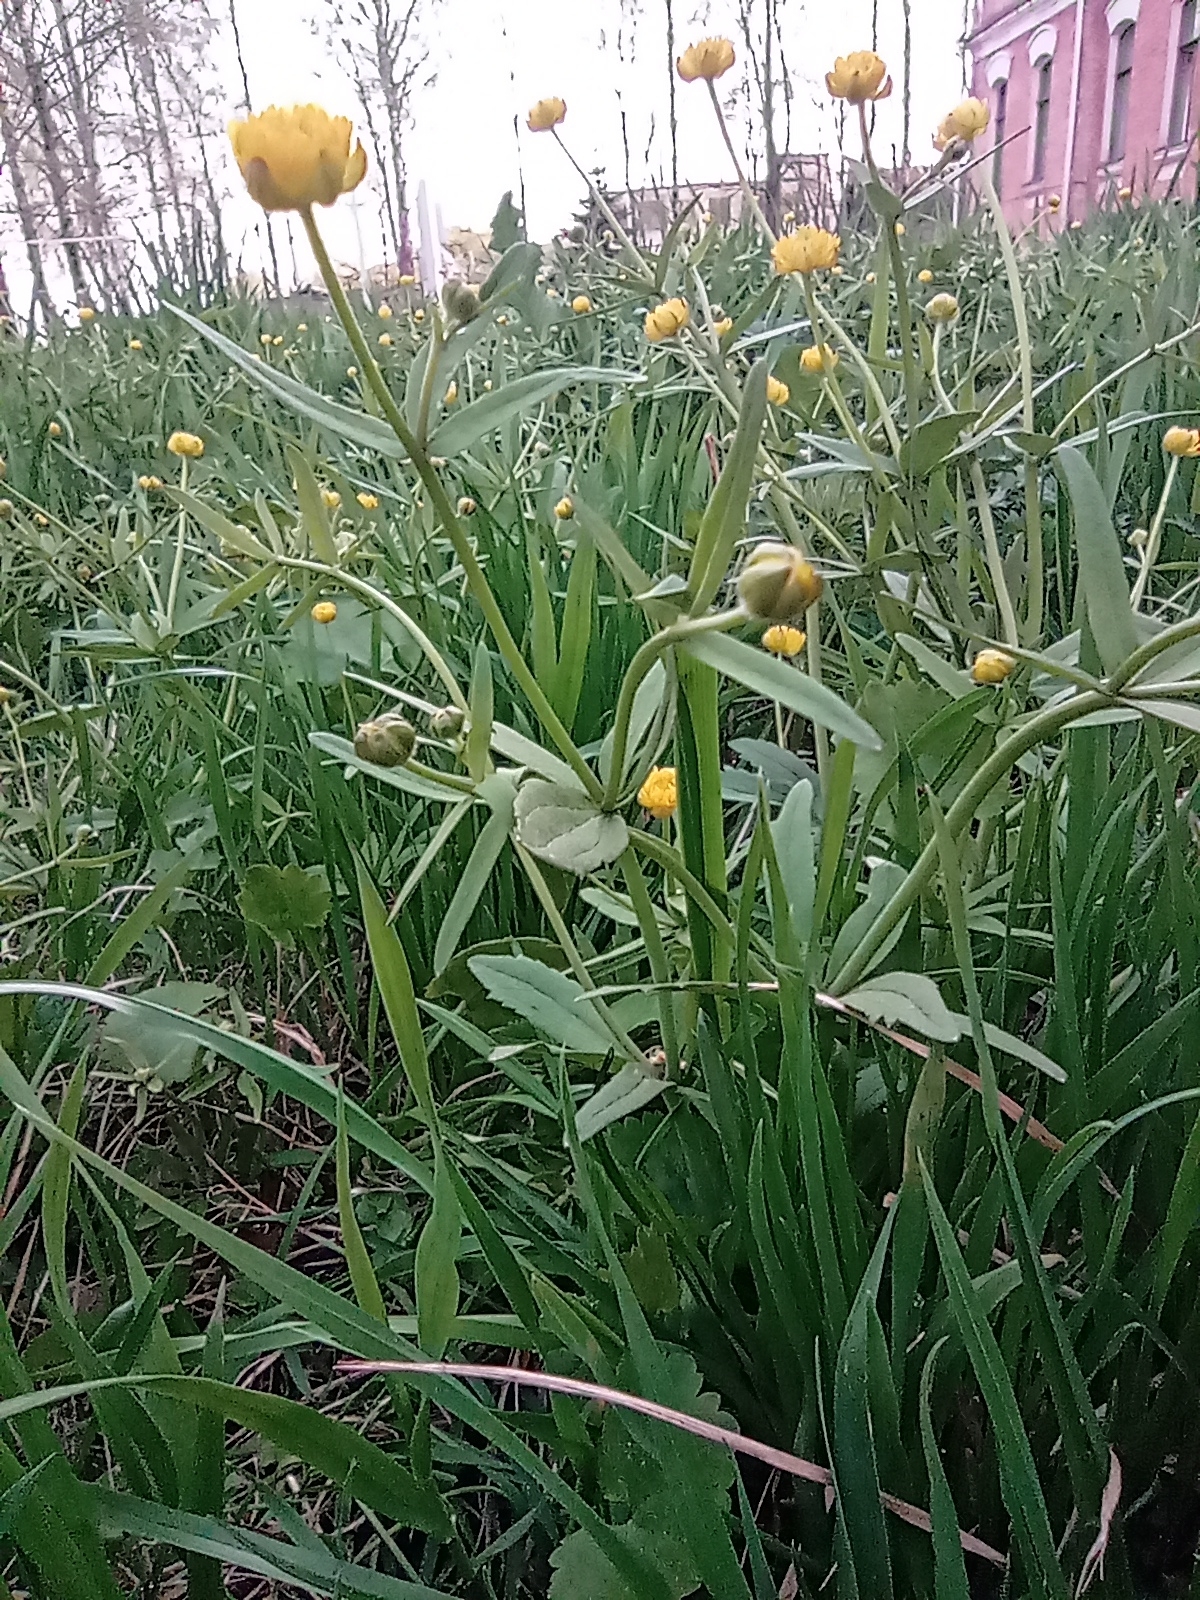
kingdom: Plantae
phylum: Tracheophyta
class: Magnoliopsida
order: Ranunculales
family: Ranunculaceae
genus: Ranunculus
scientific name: Ranunculus cassubicus
